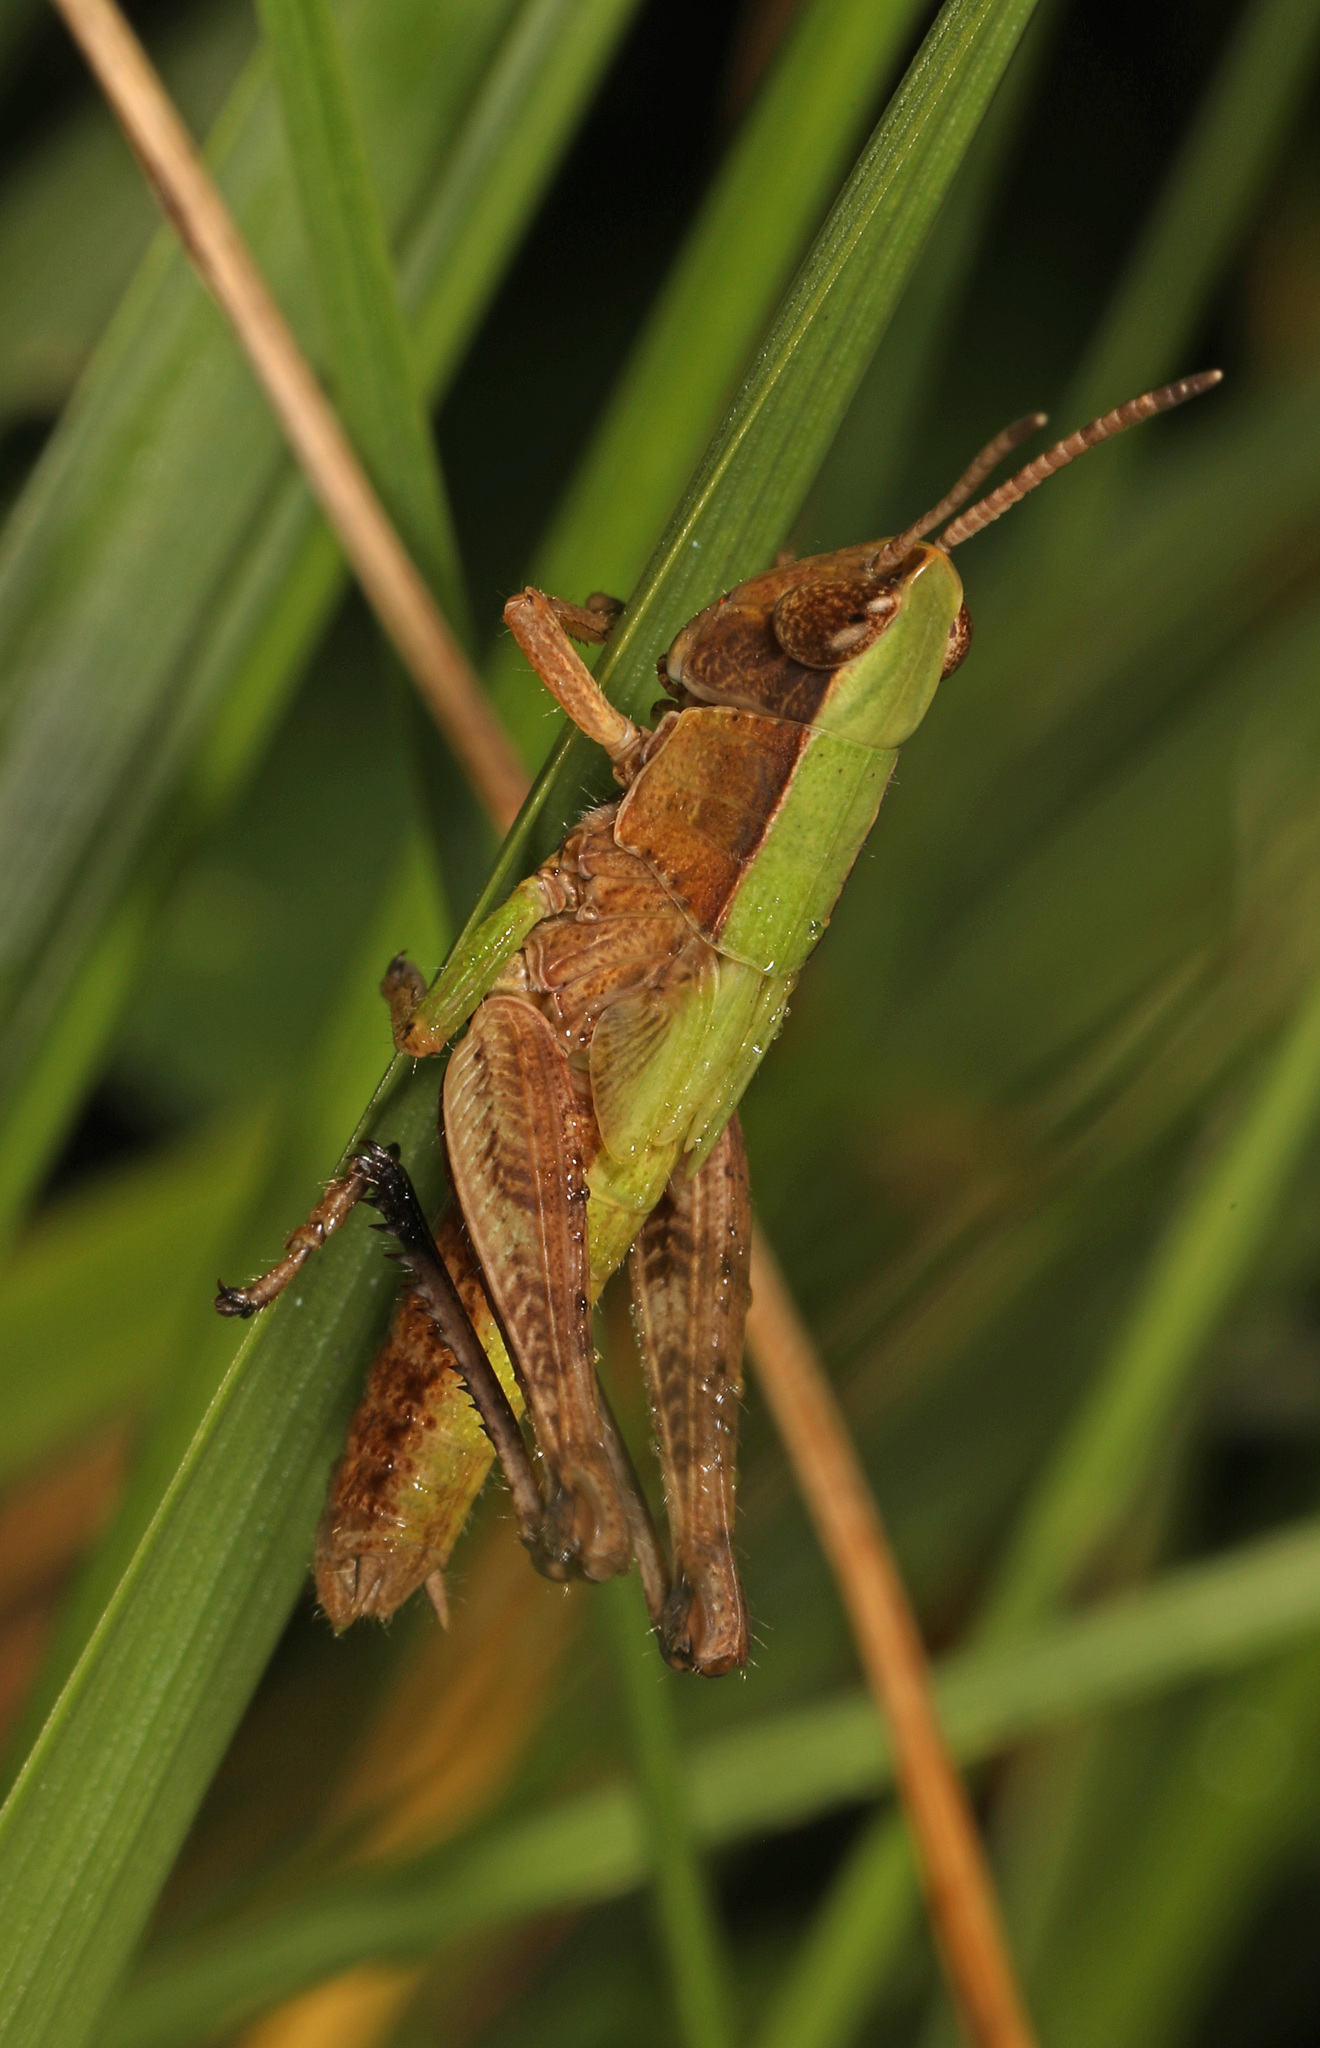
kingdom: Animalia
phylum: Arthropoda
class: Insecta
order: Orthoptera
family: Acrididae
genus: Dichromorpha
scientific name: Dichromorpha viridis
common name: Short-winged green grasshopper
